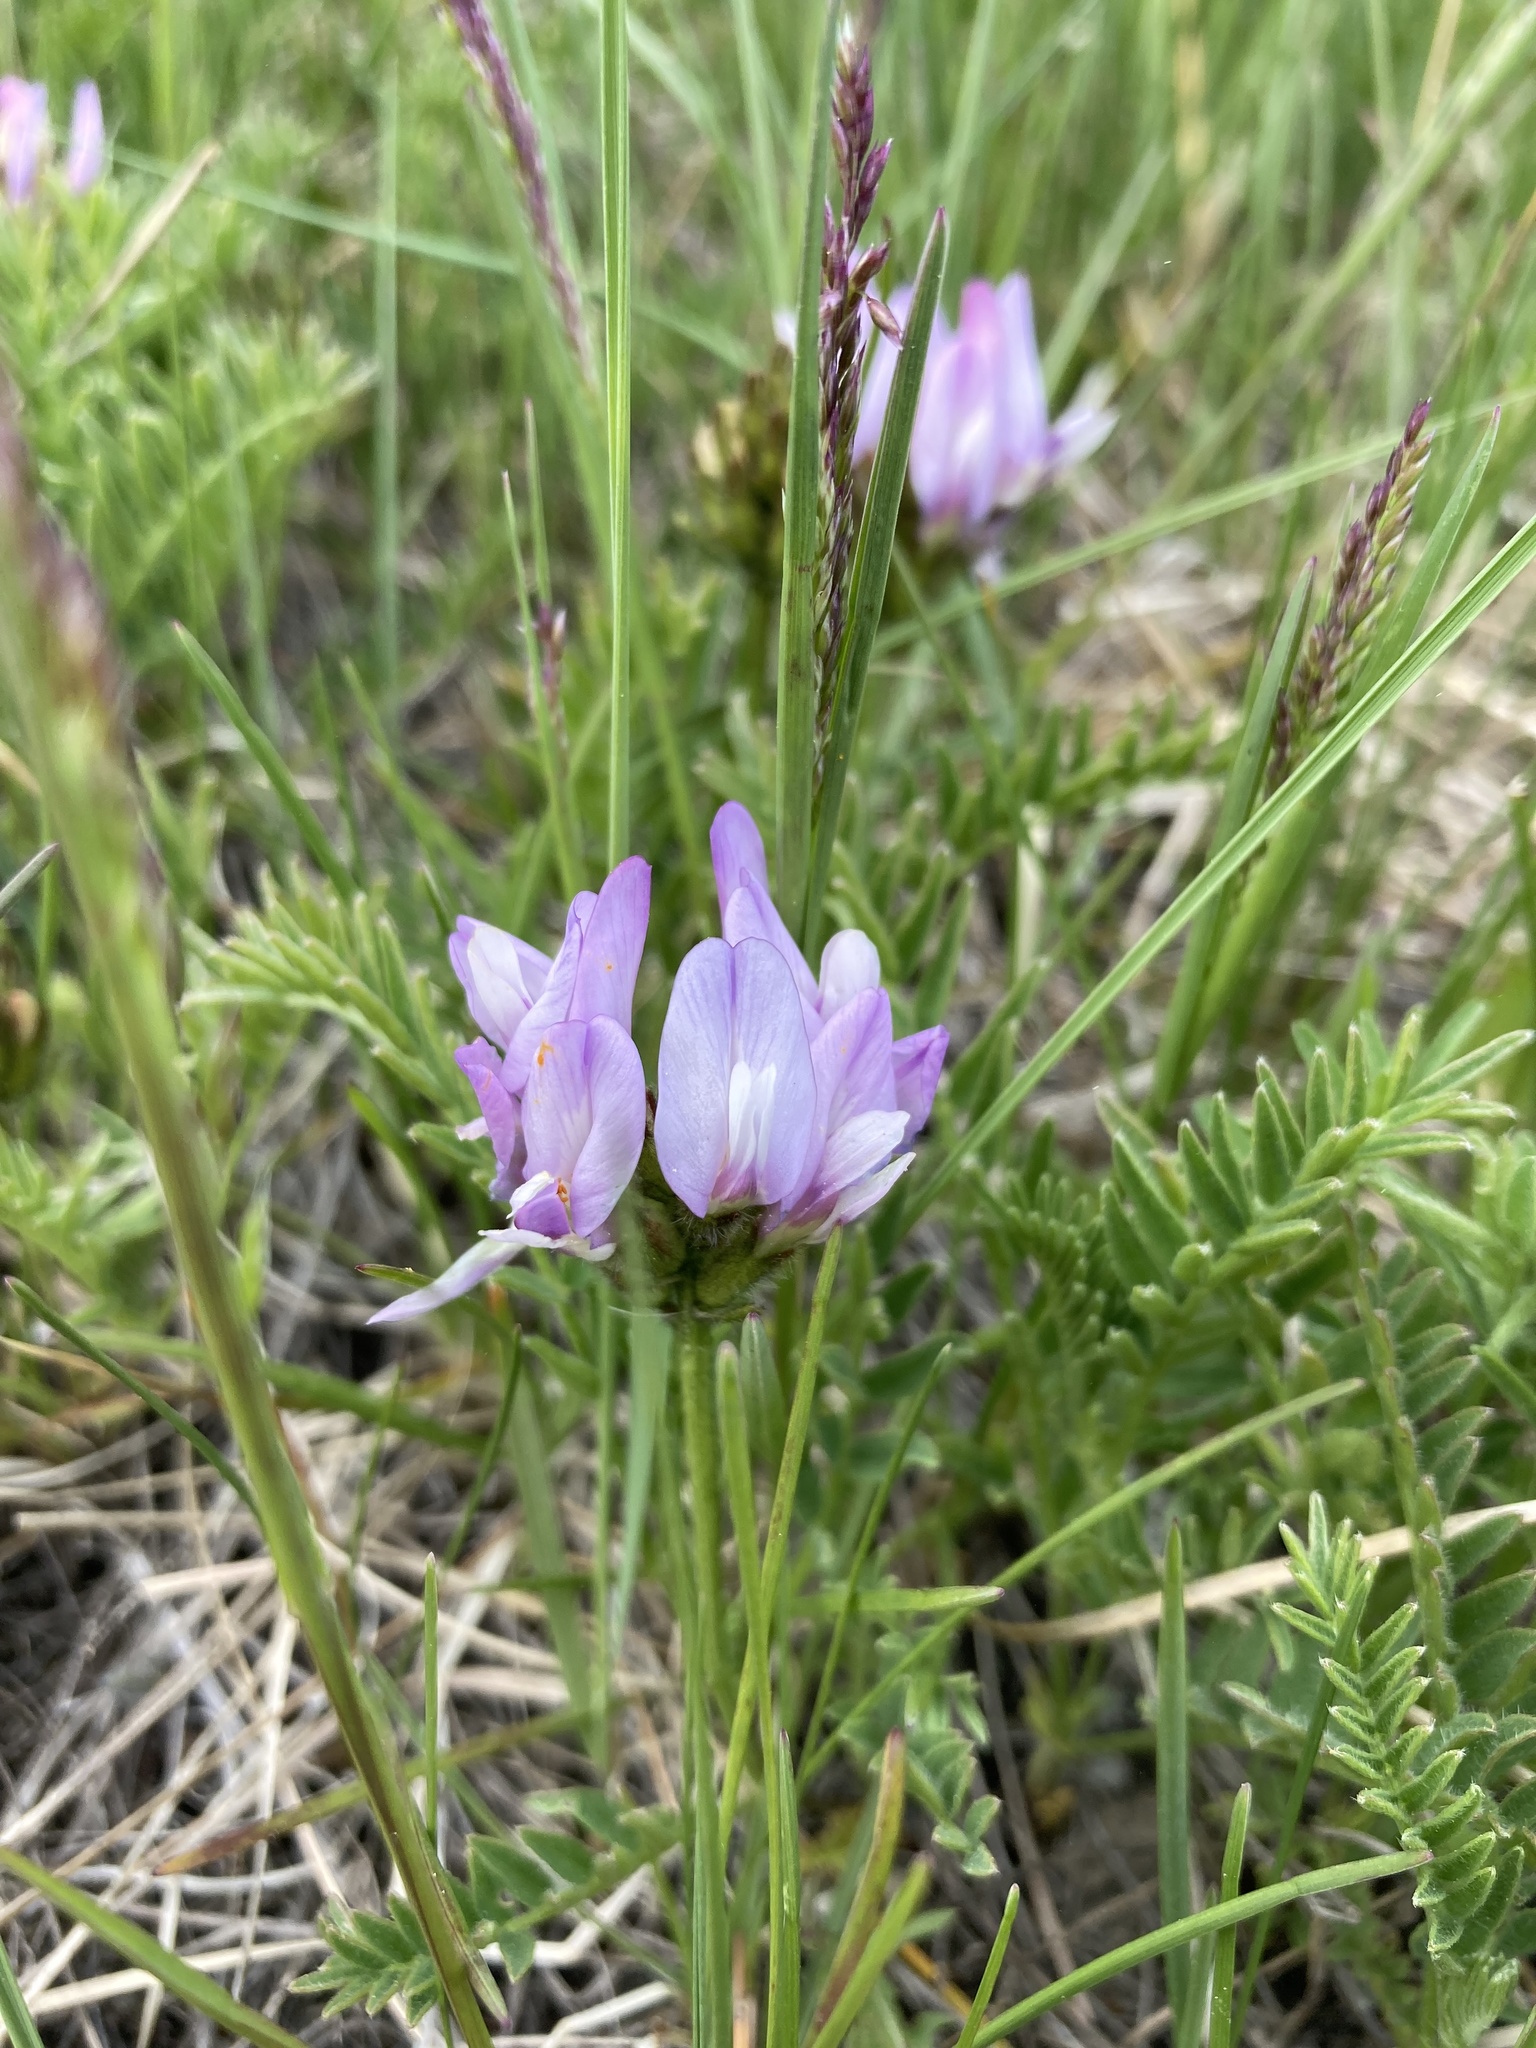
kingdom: Plantae
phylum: Tracheophyta
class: Magnoliopsida
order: Fabales
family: Fabaceae
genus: Astragalus
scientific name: Astragalus agrestis
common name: Field milk-vetch
